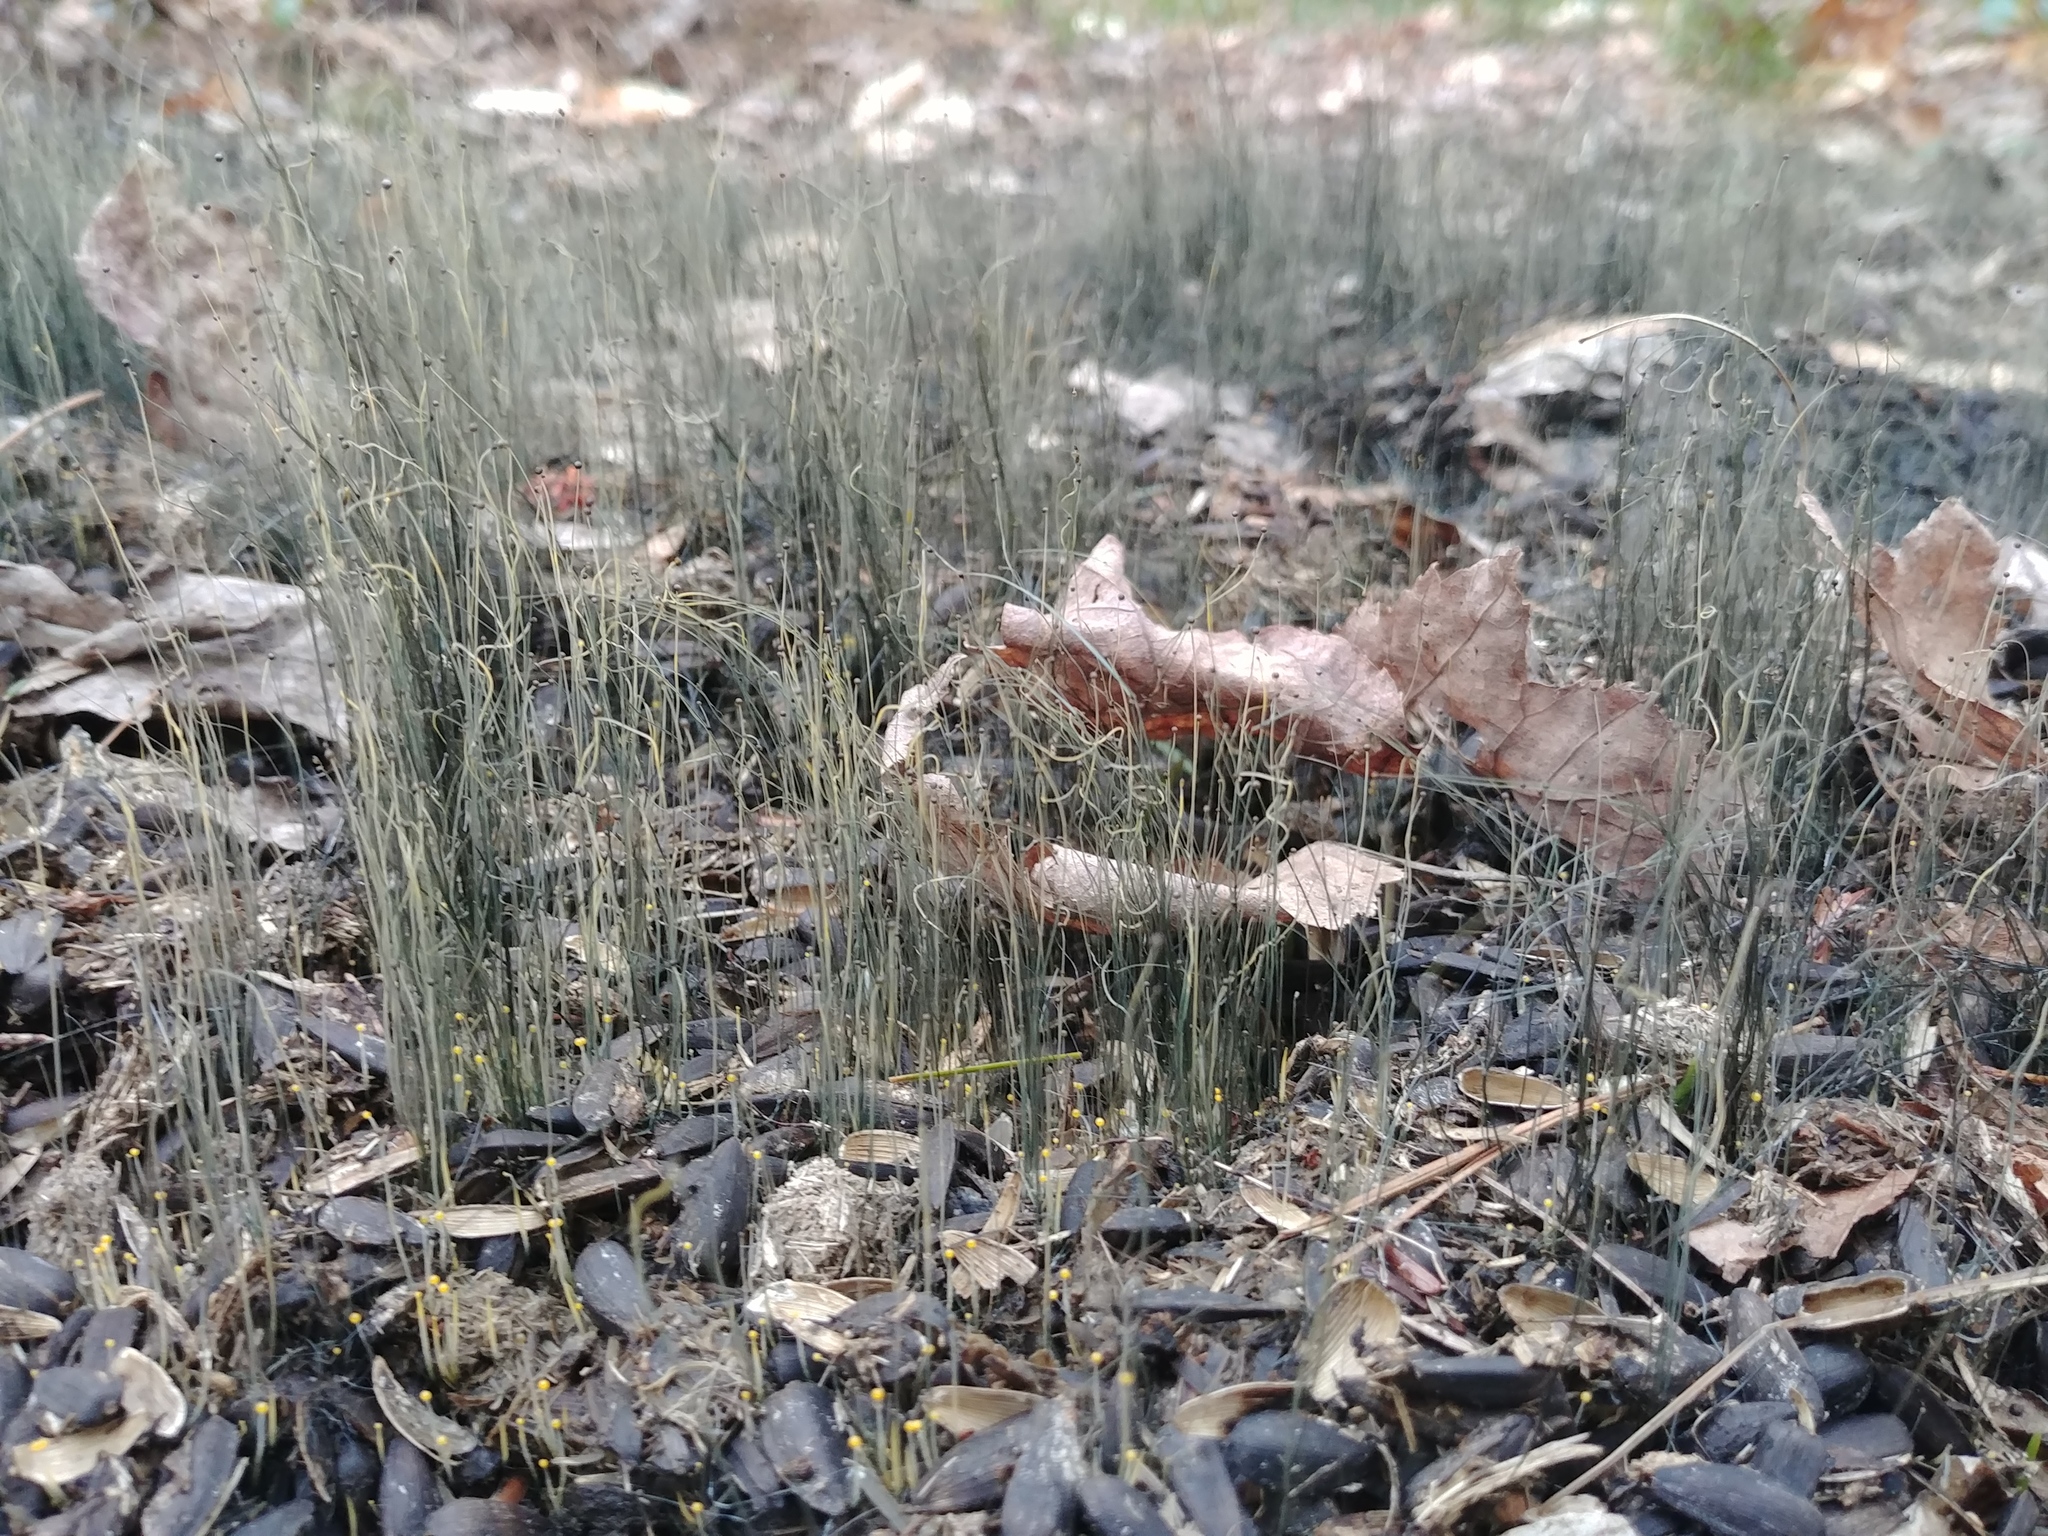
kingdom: Fungi
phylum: Mucoromycota
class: Mucoromycetes
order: Mucorales
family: Phycomycetaceae
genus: Phycomyces
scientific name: Phycomyces
